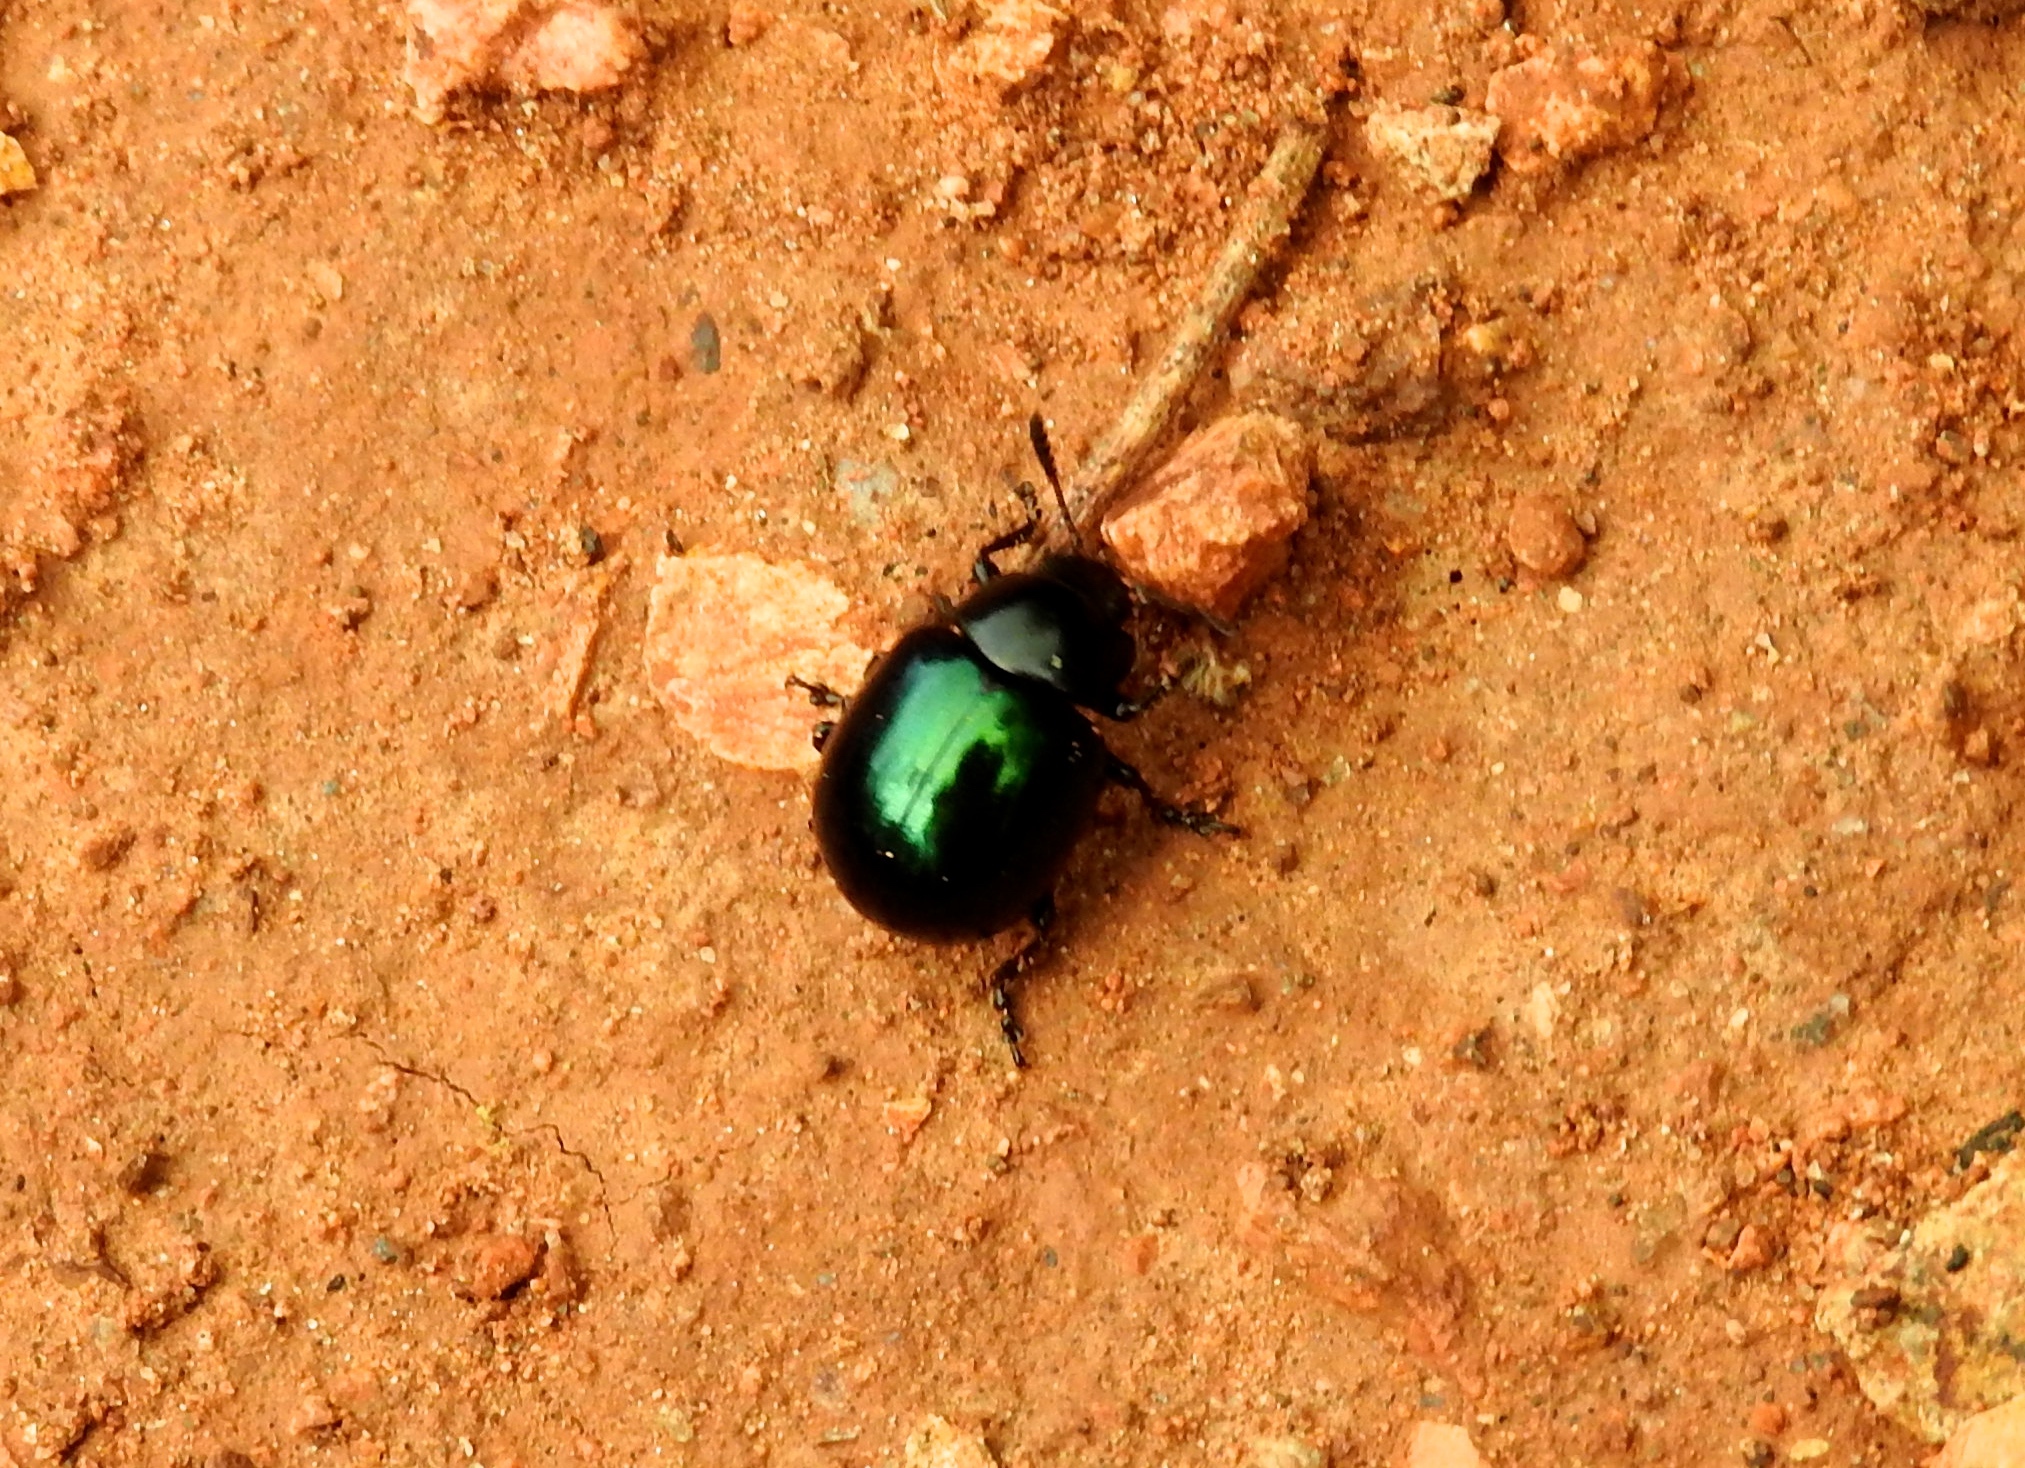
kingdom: Animalia
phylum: Arthropoda
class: Insecta
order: Coleoptera
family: Chrysomelidae
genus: Leptinotarsa
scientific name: Leptinotarsa haldemani
